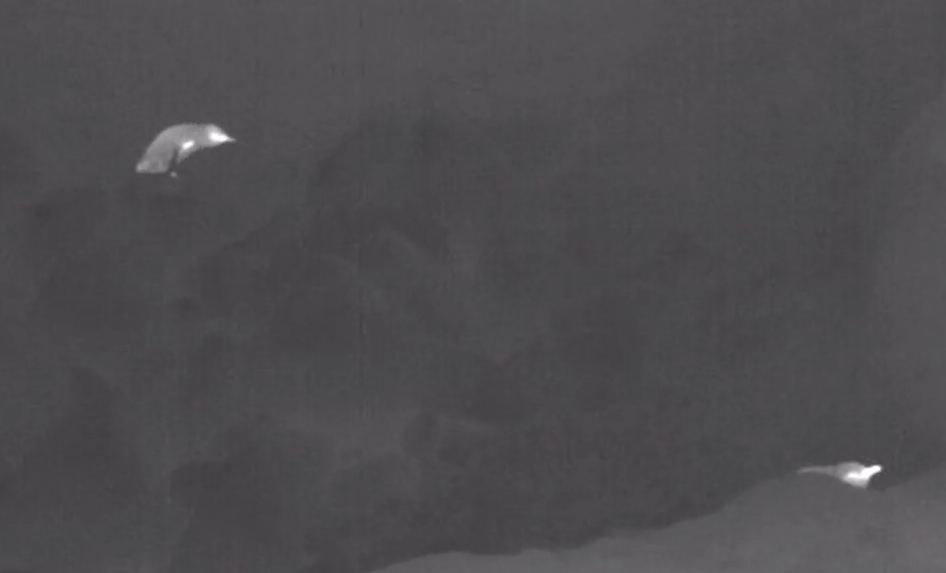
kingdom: Animalia
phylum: Chordata
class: Aves
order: Sphenisciformes
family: Spheniscidae
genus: Eudyptula
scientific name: Eudyptula minor
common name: Little penguin
